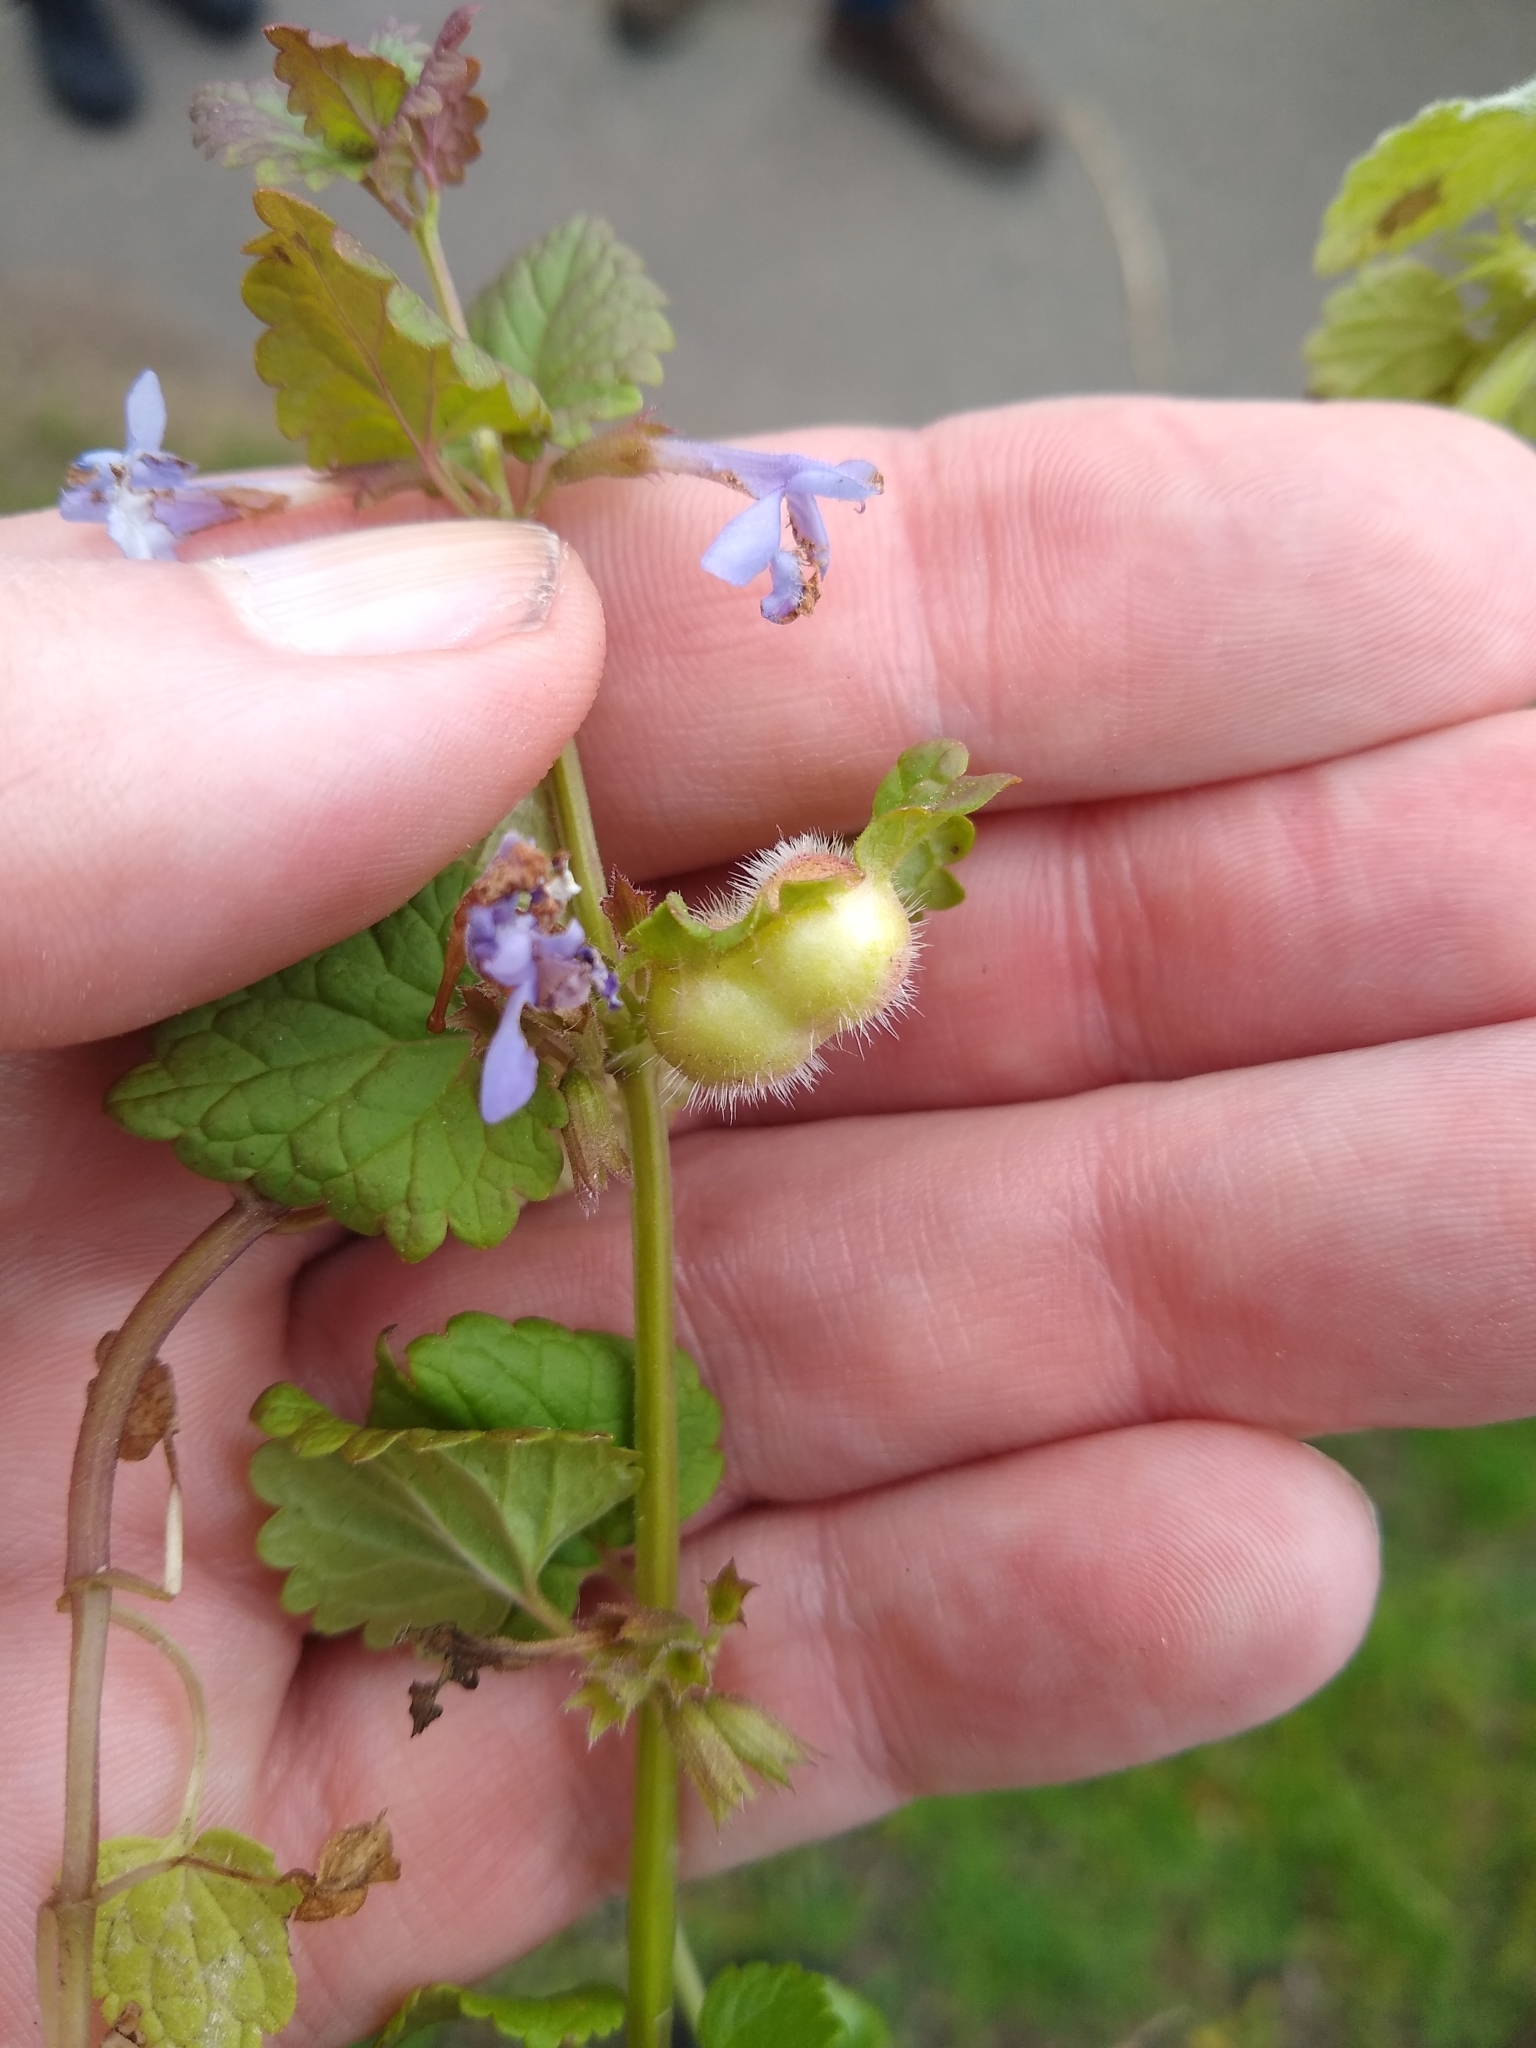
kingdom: Animalia
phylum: Arthropoda
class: Insecta
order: Hymenoptera
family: Cynipidae
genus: Liposthenes
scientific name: Liposthenes glechomae
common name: Gall wasp
